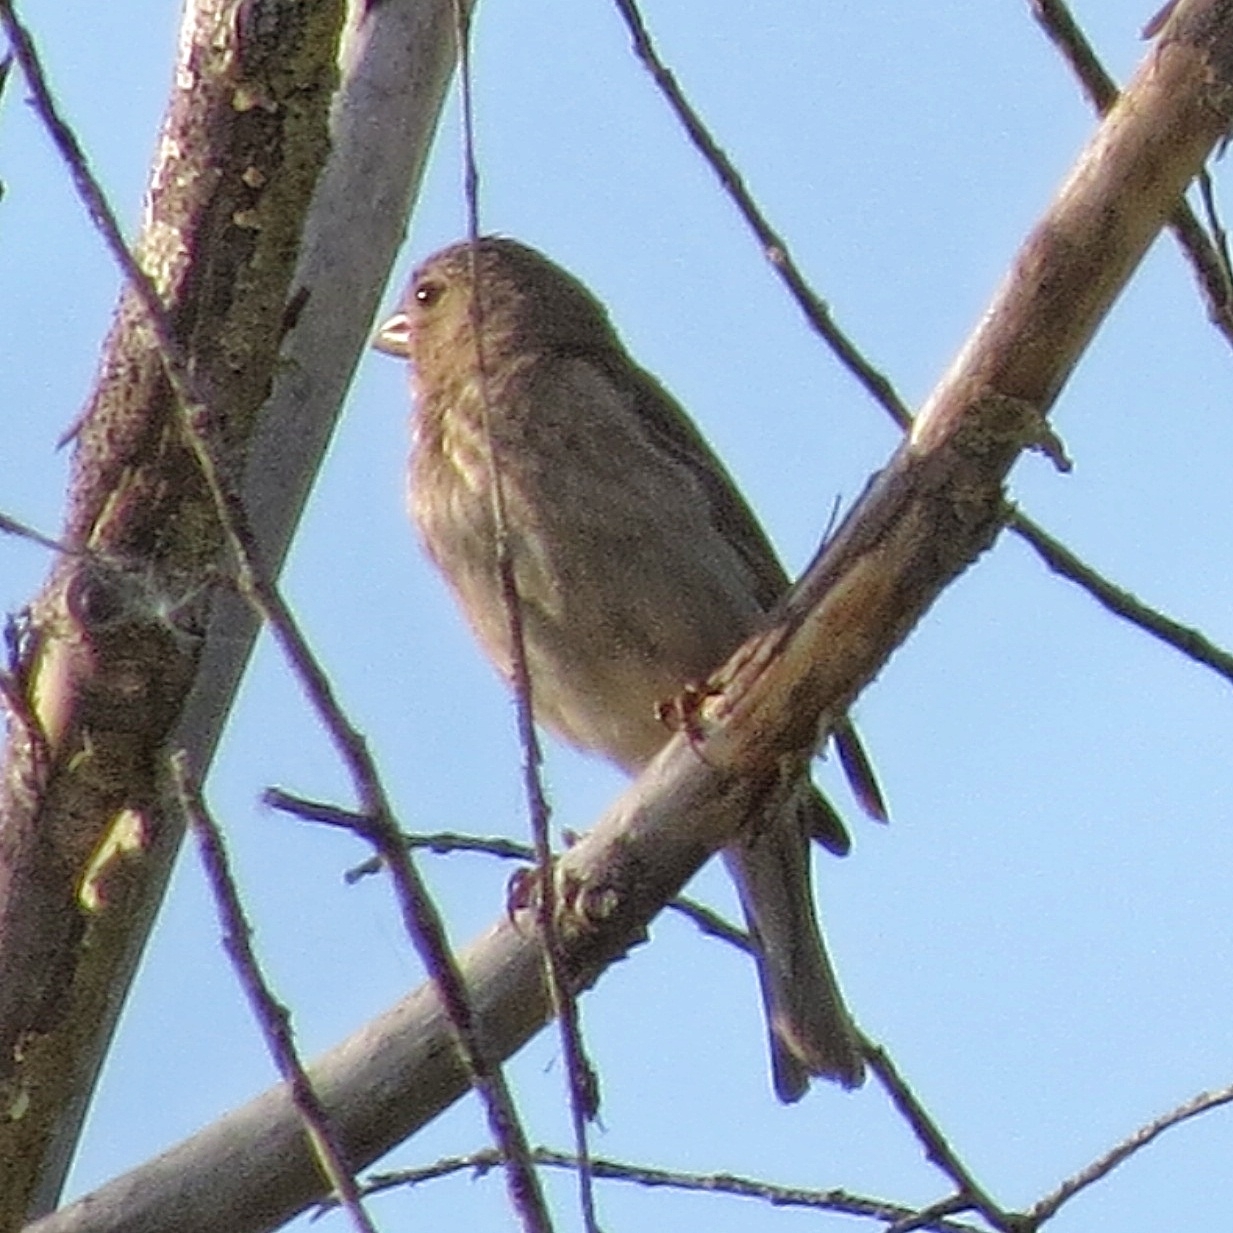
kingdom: Animalia
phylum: Chordata
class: Aves
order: Passeriformes
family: Fringillidae
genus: Carpodacus
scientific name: Carpodacus erythrinus
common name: Common rosefinch
